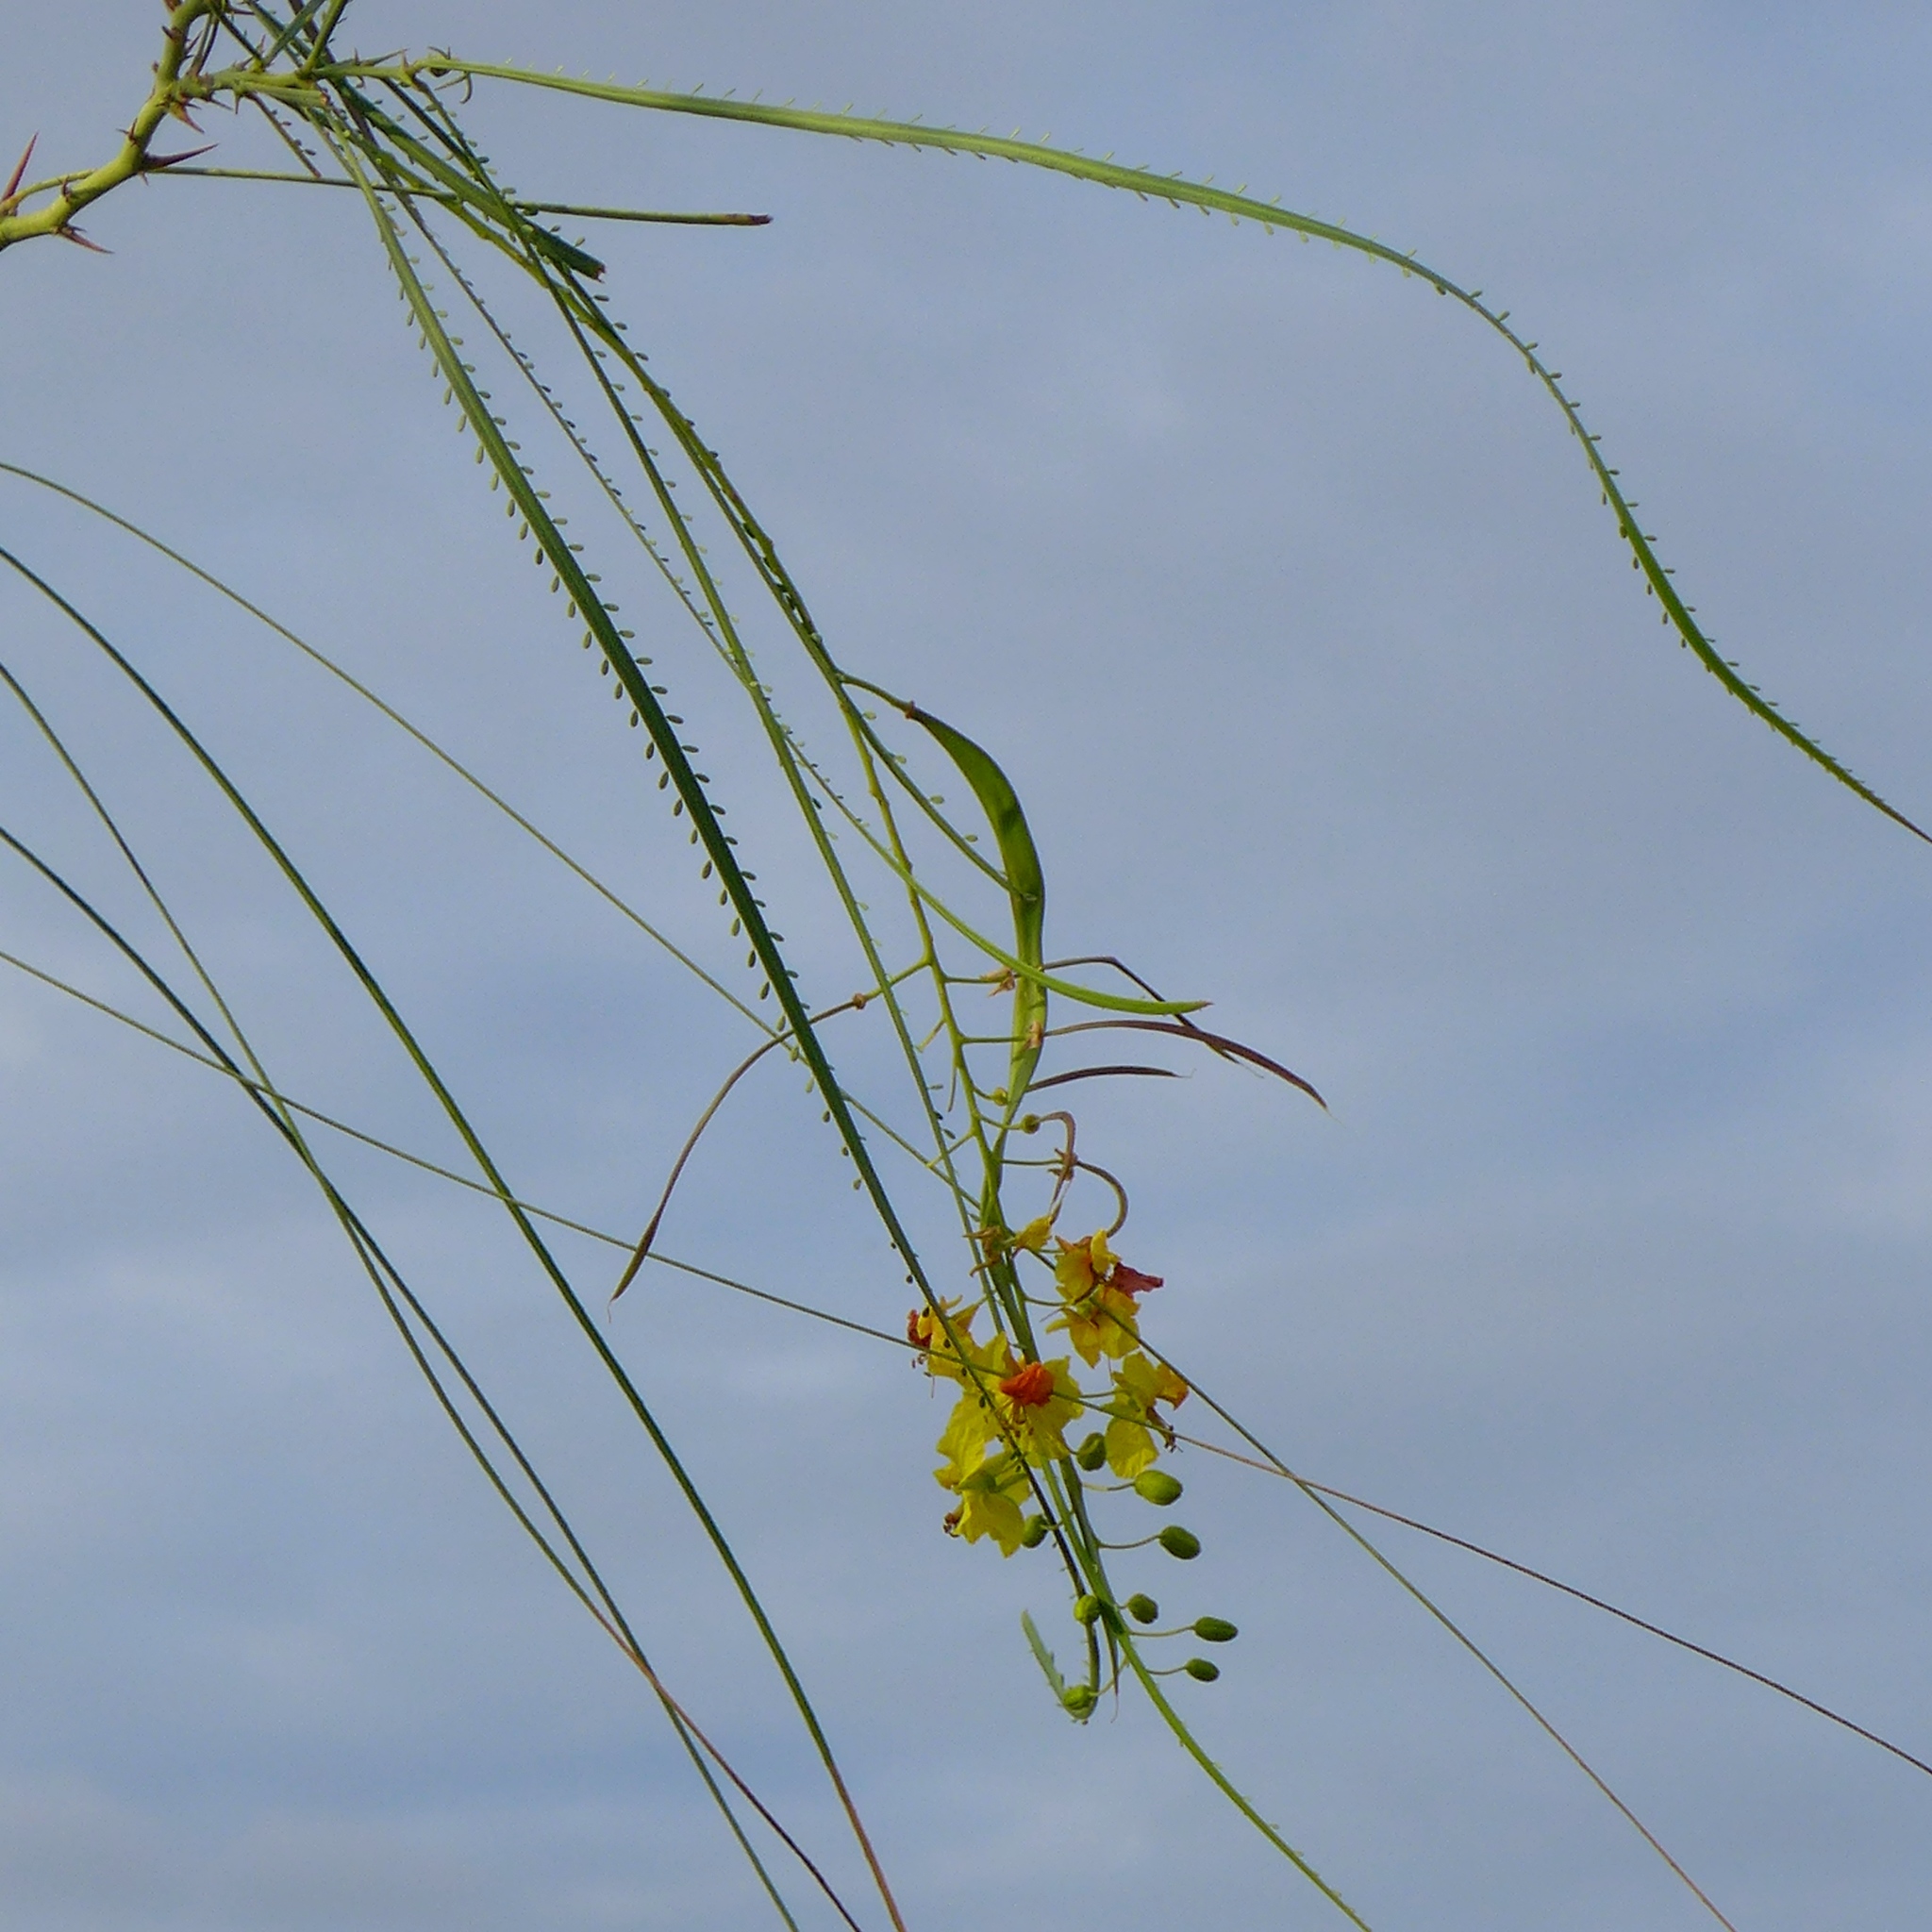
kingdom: Plantae
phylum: Tracheophyta
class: Magnoliopsida
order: Fabales
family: Fabaceae
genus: Parkinsonia
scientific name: Parkinsonia aculeata
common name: Jerusalem thorn
